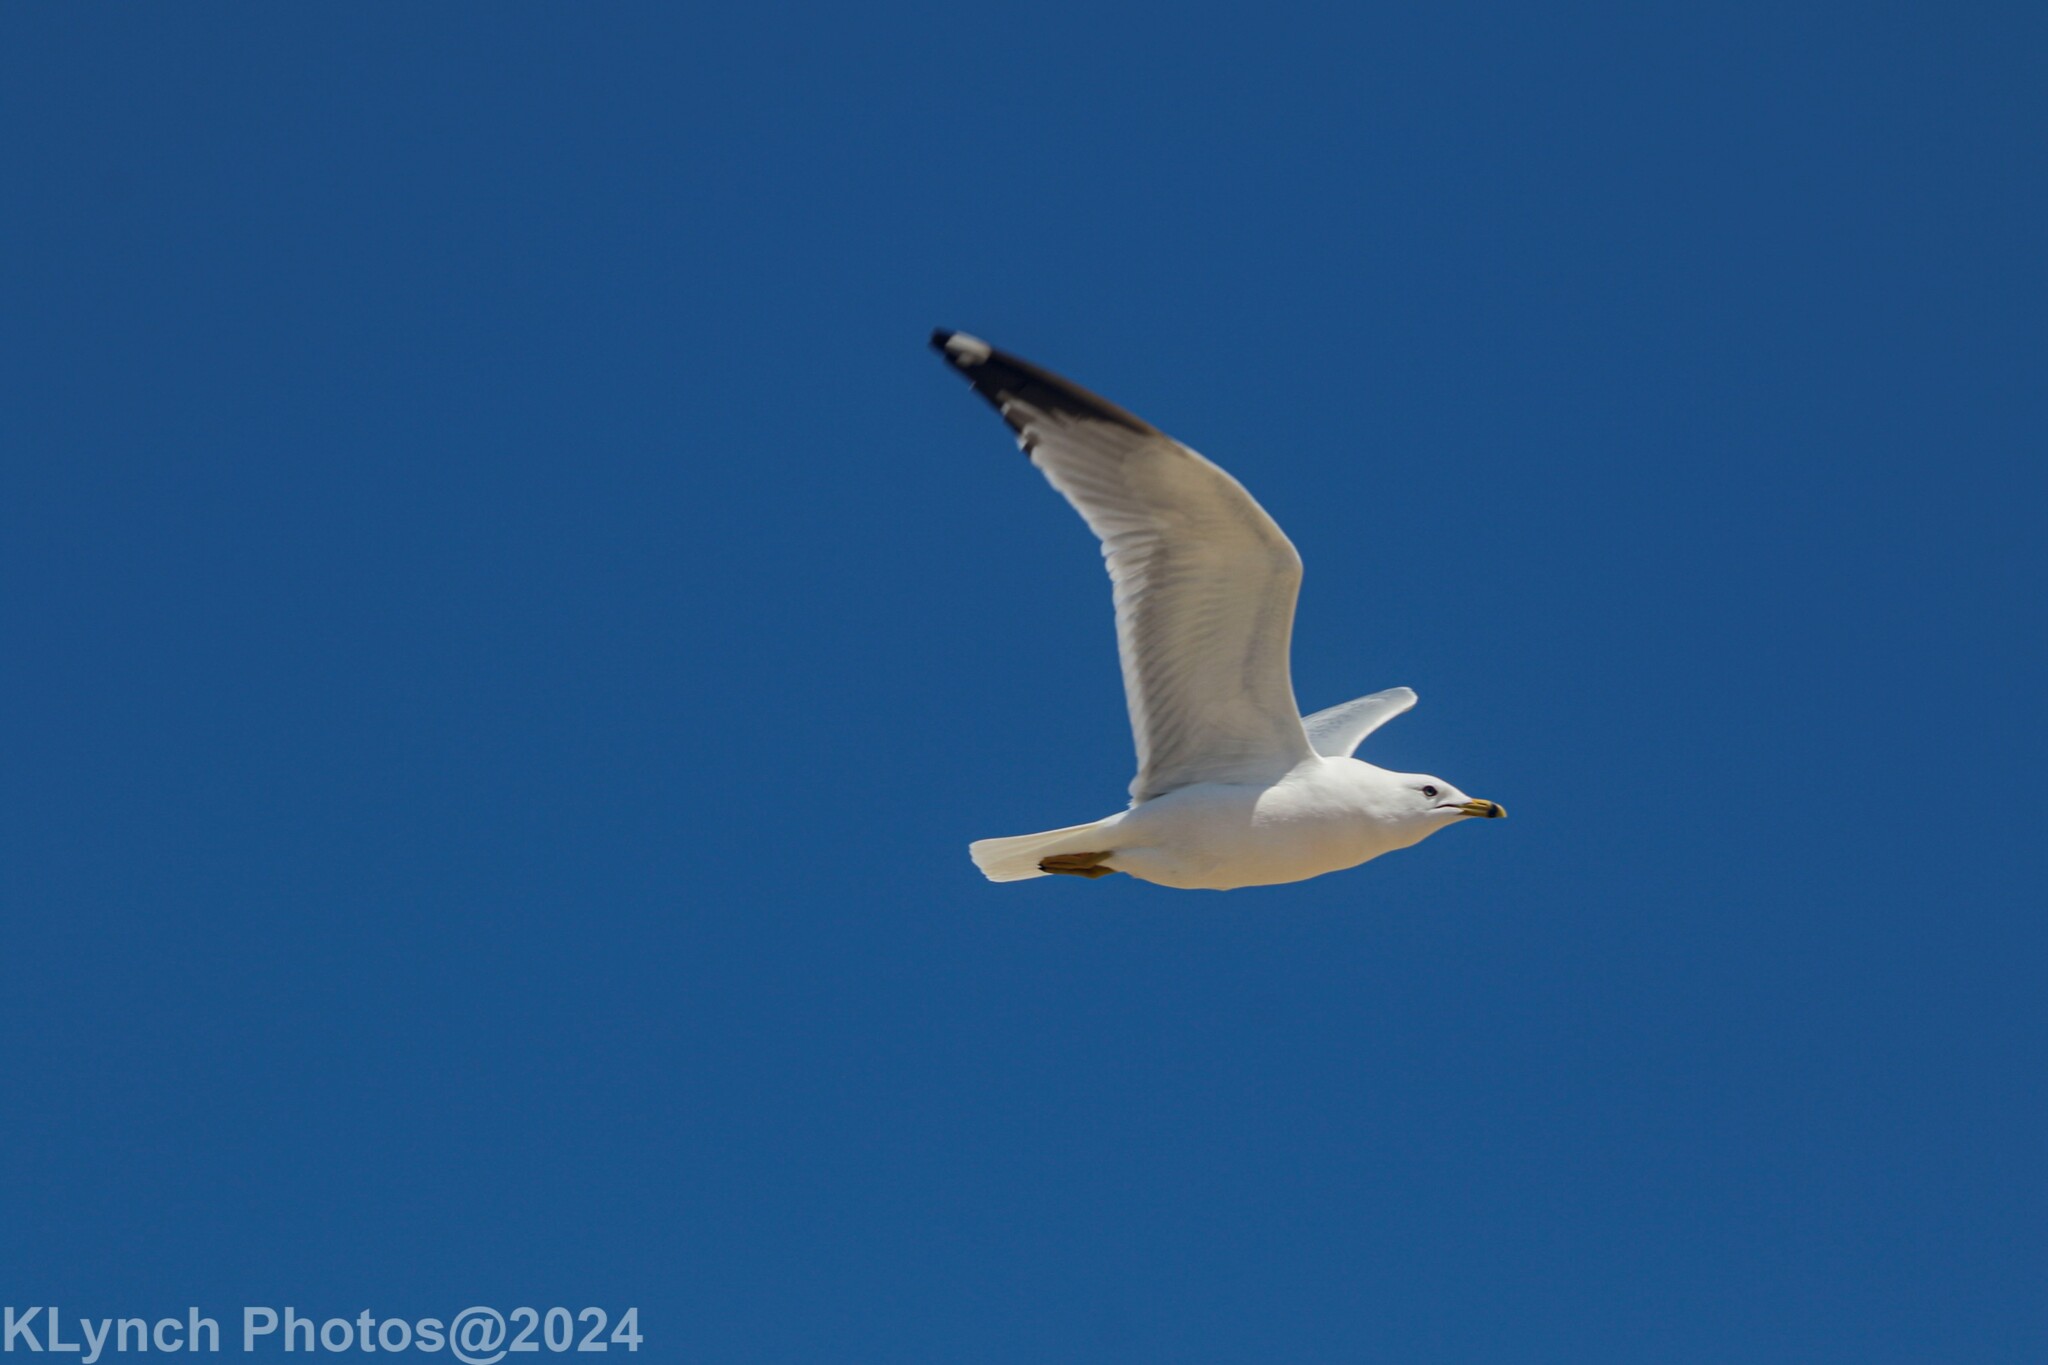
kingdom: Animalia
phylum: Chordata
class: Aves
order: Charadriiformes
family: Laridae
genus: Larus
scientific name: Larus delawarensis
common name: Ring-billed gull
